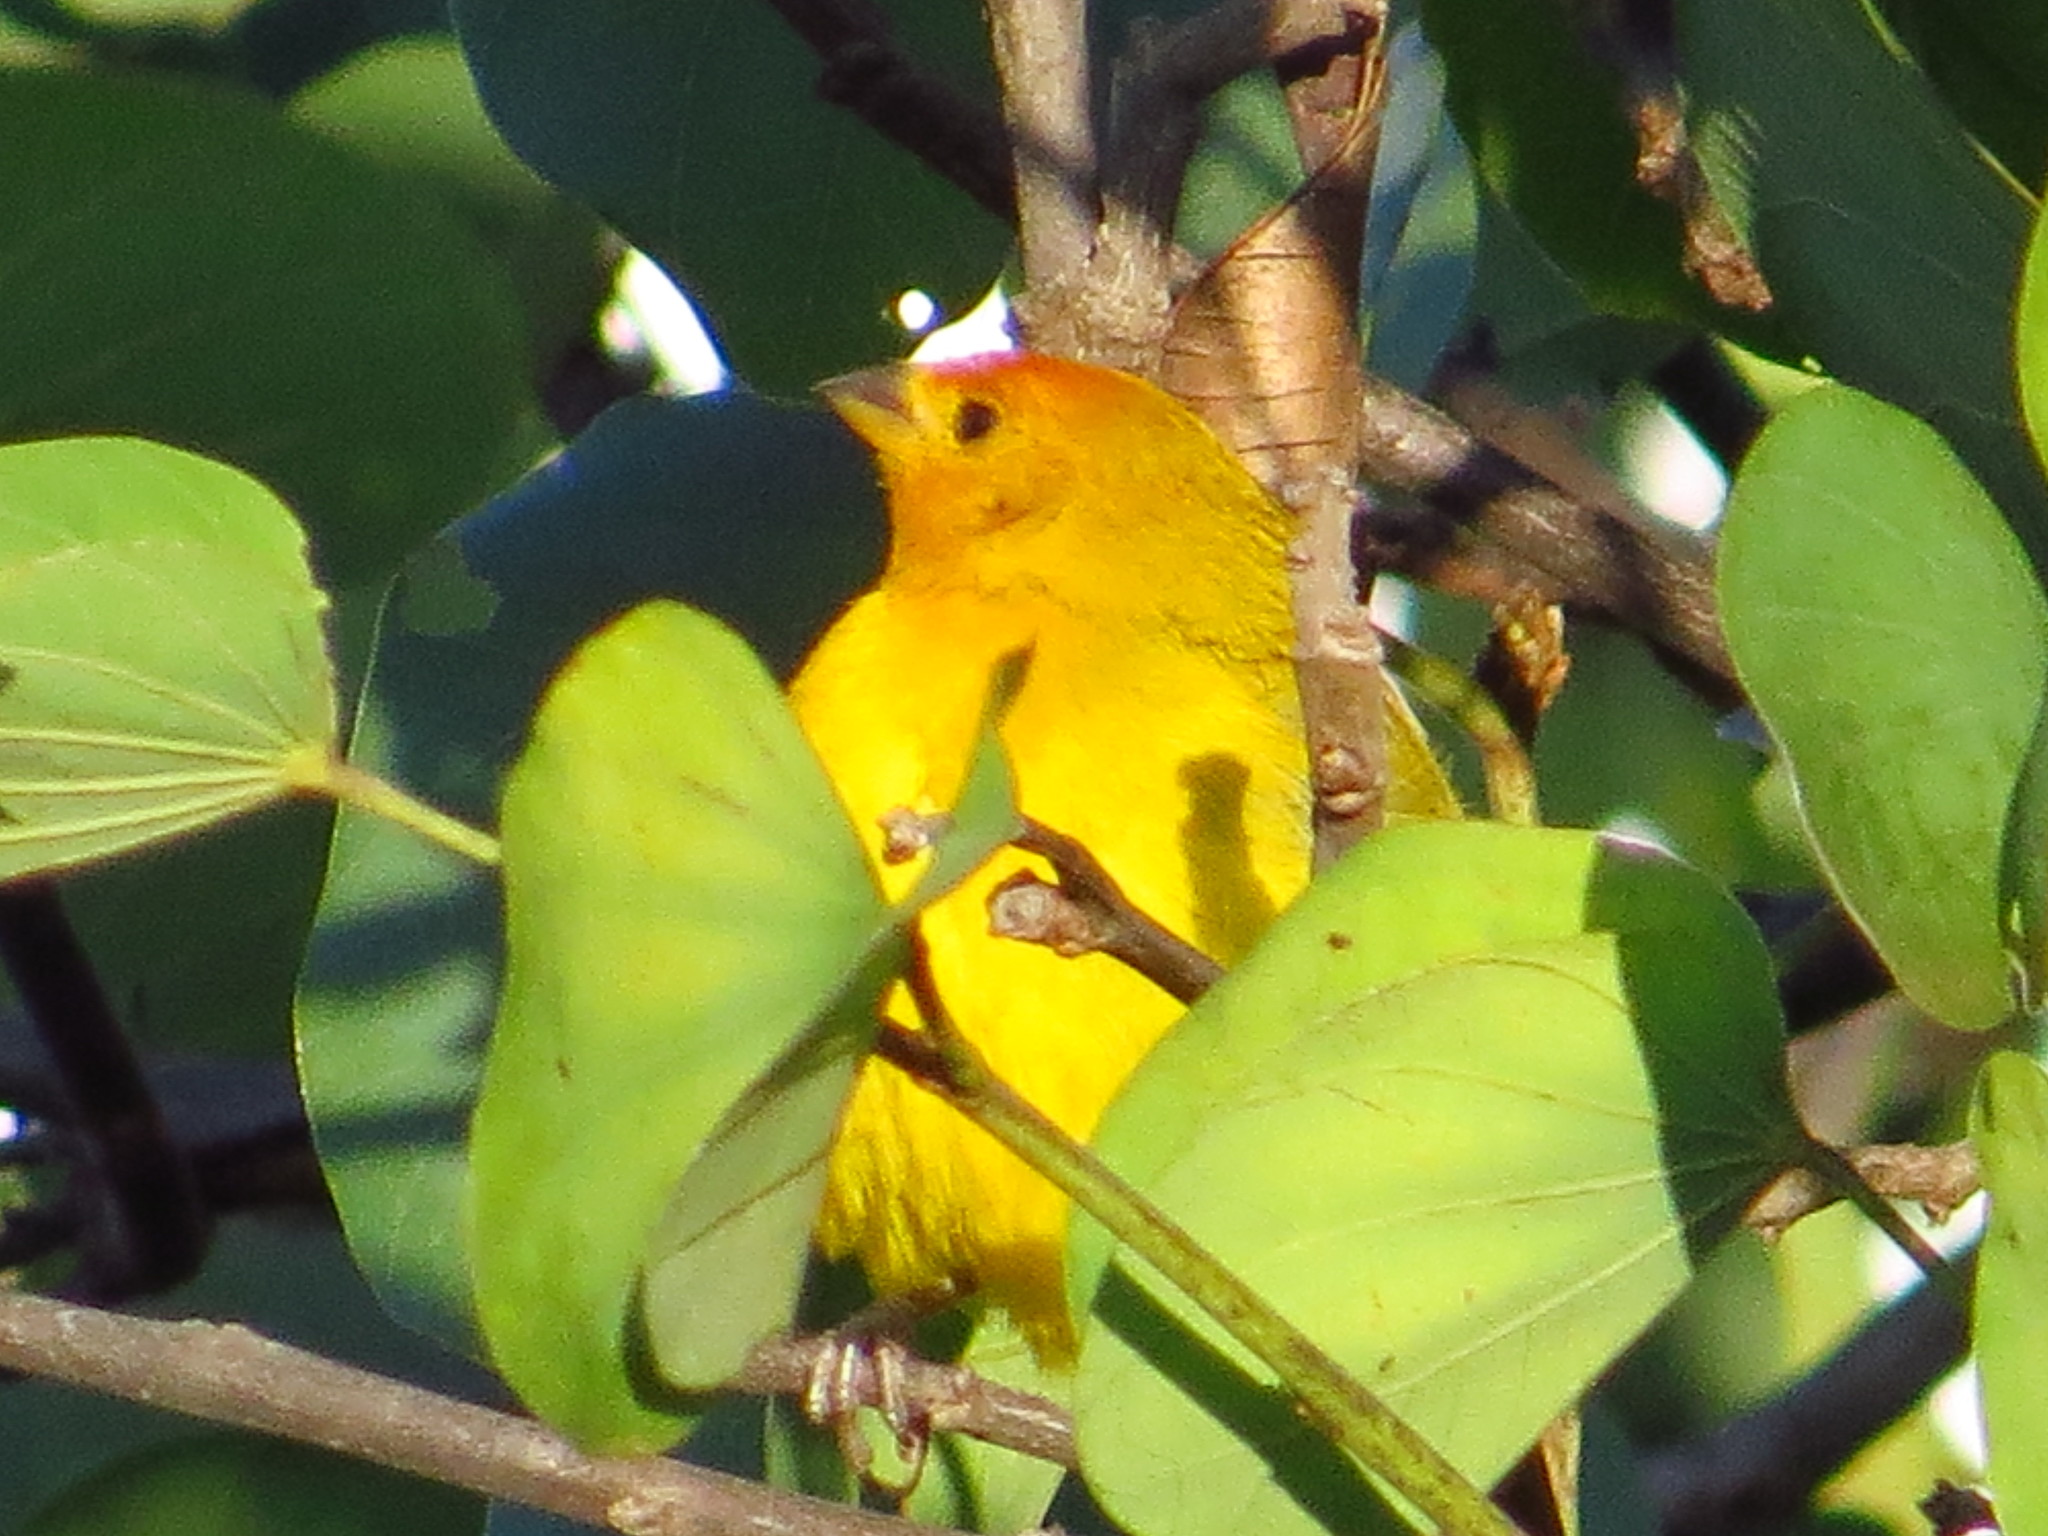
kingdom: Animalia
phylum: Chordata
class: Aves
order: Passeriformes
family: Thraupidae
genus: Sicalis
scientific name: Sicalis flaveola
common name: Saffron finch
